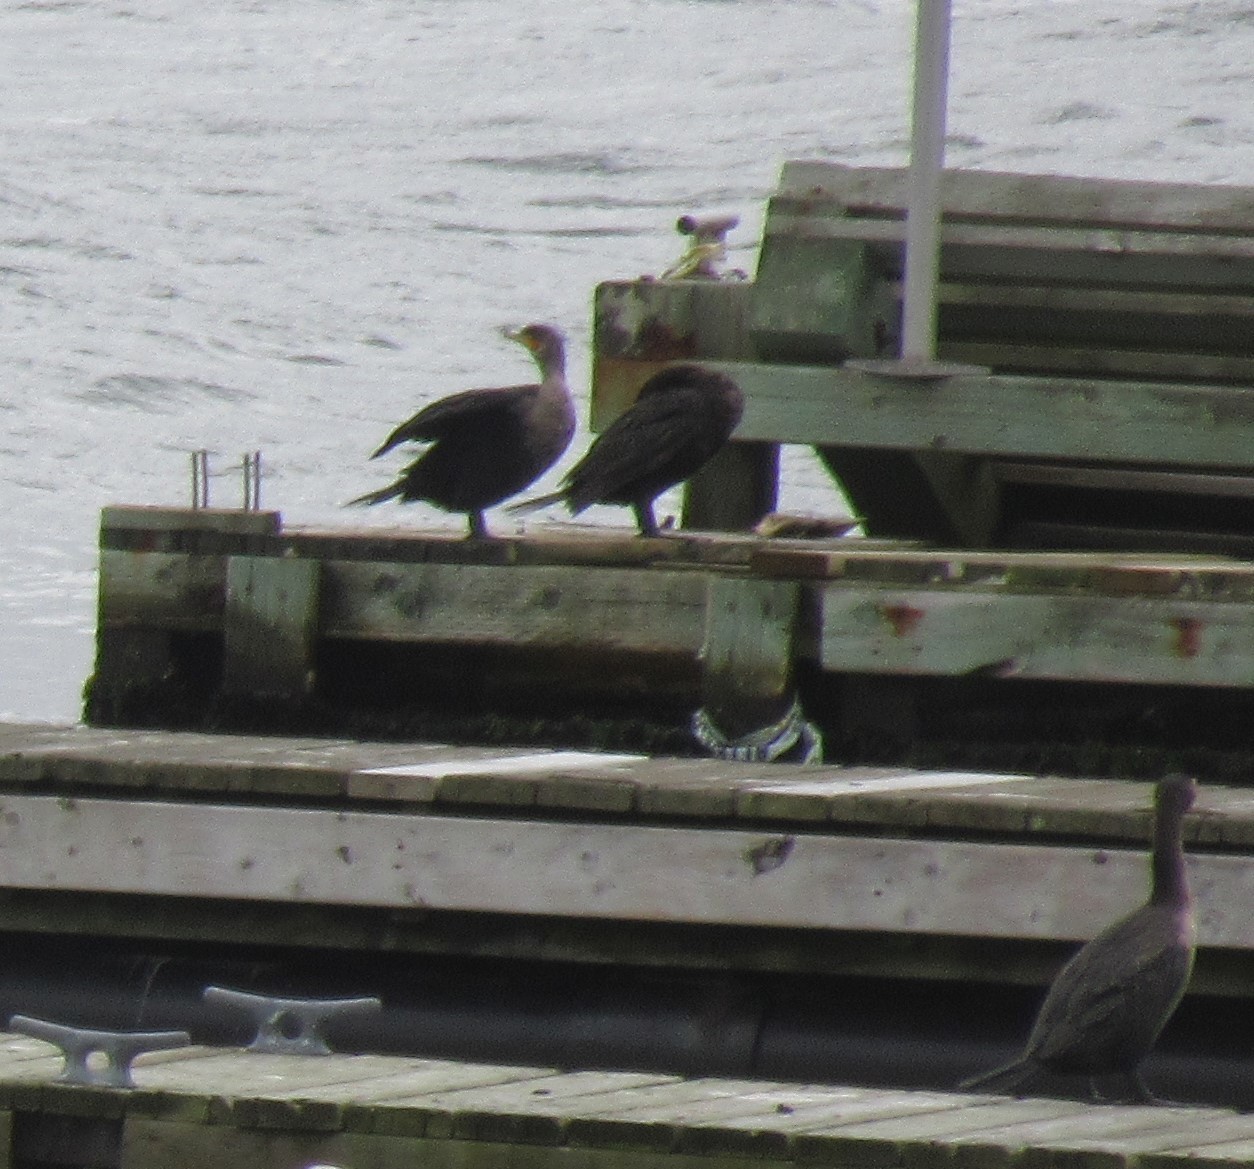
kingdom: Animalia
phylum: Chordata
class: Aves
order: Suliformes
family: Phalacrocoracidae
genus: Phalacrocorax
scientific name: Phalacrocorax auritus
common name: Double-crested cormorant
